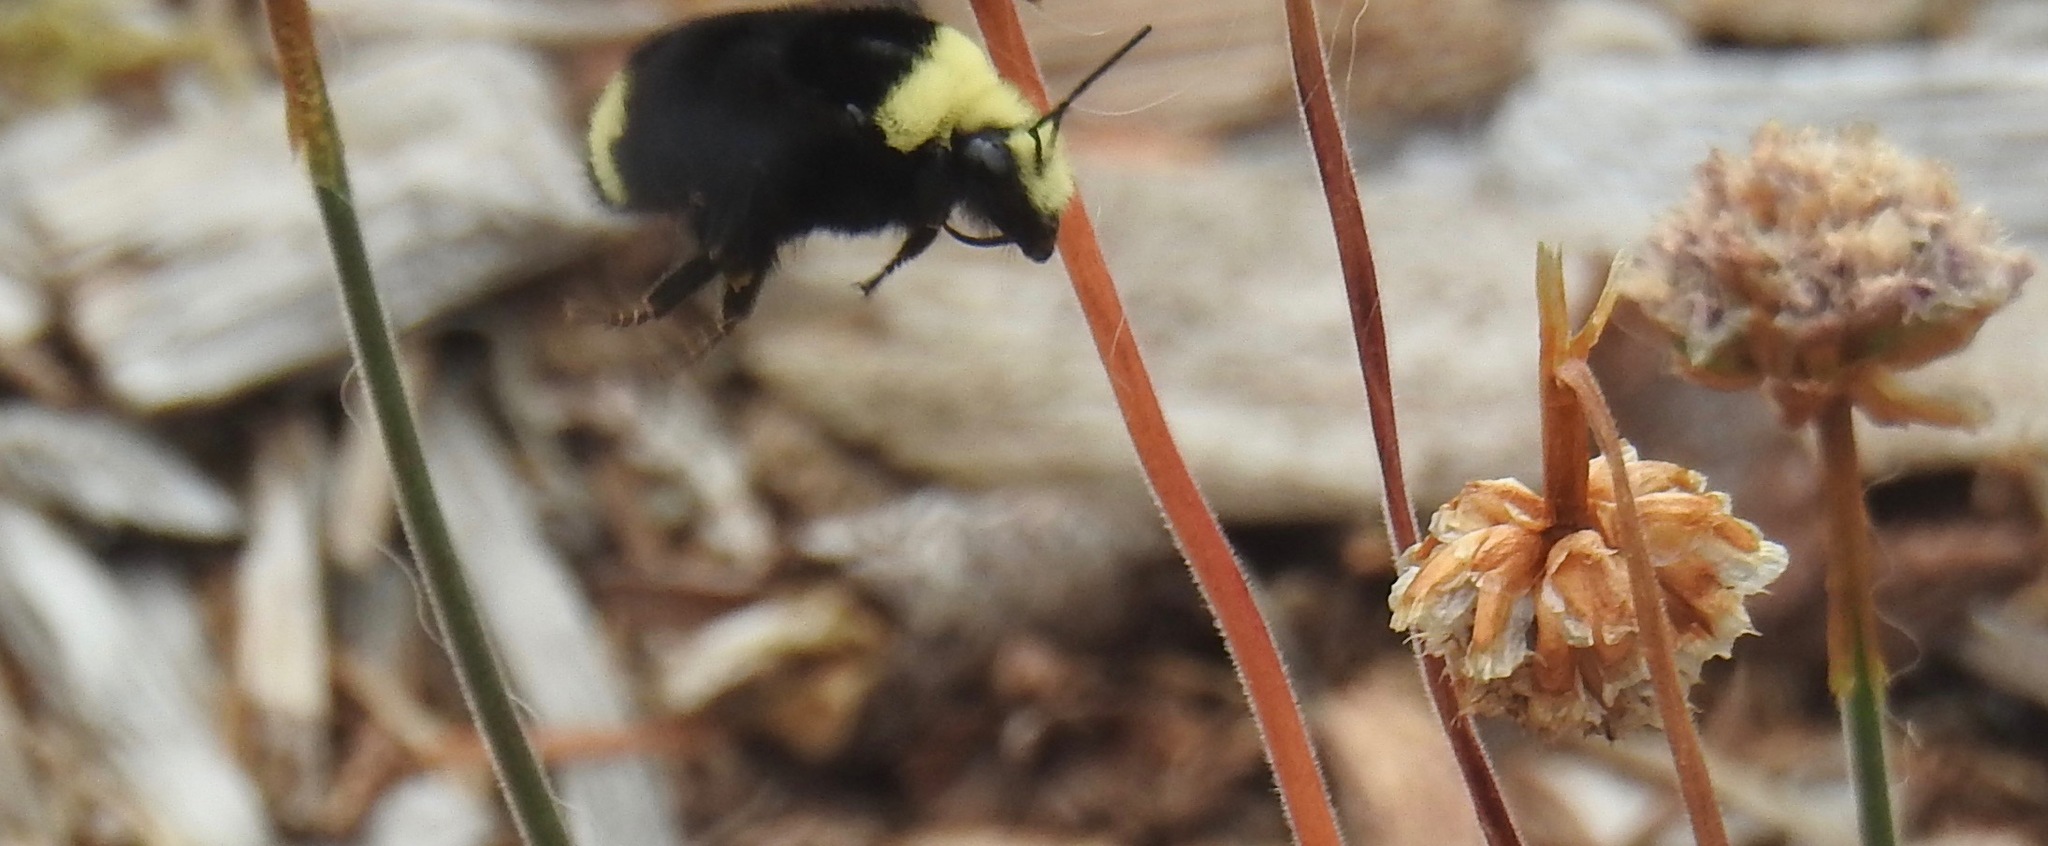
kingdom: Animalia
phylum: Arthropoda
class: Insecta
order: Hymenoptera
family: Apidae
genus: Bombus
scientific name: Bombus vosnesenskii
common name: Vosnesensky bumble bee
